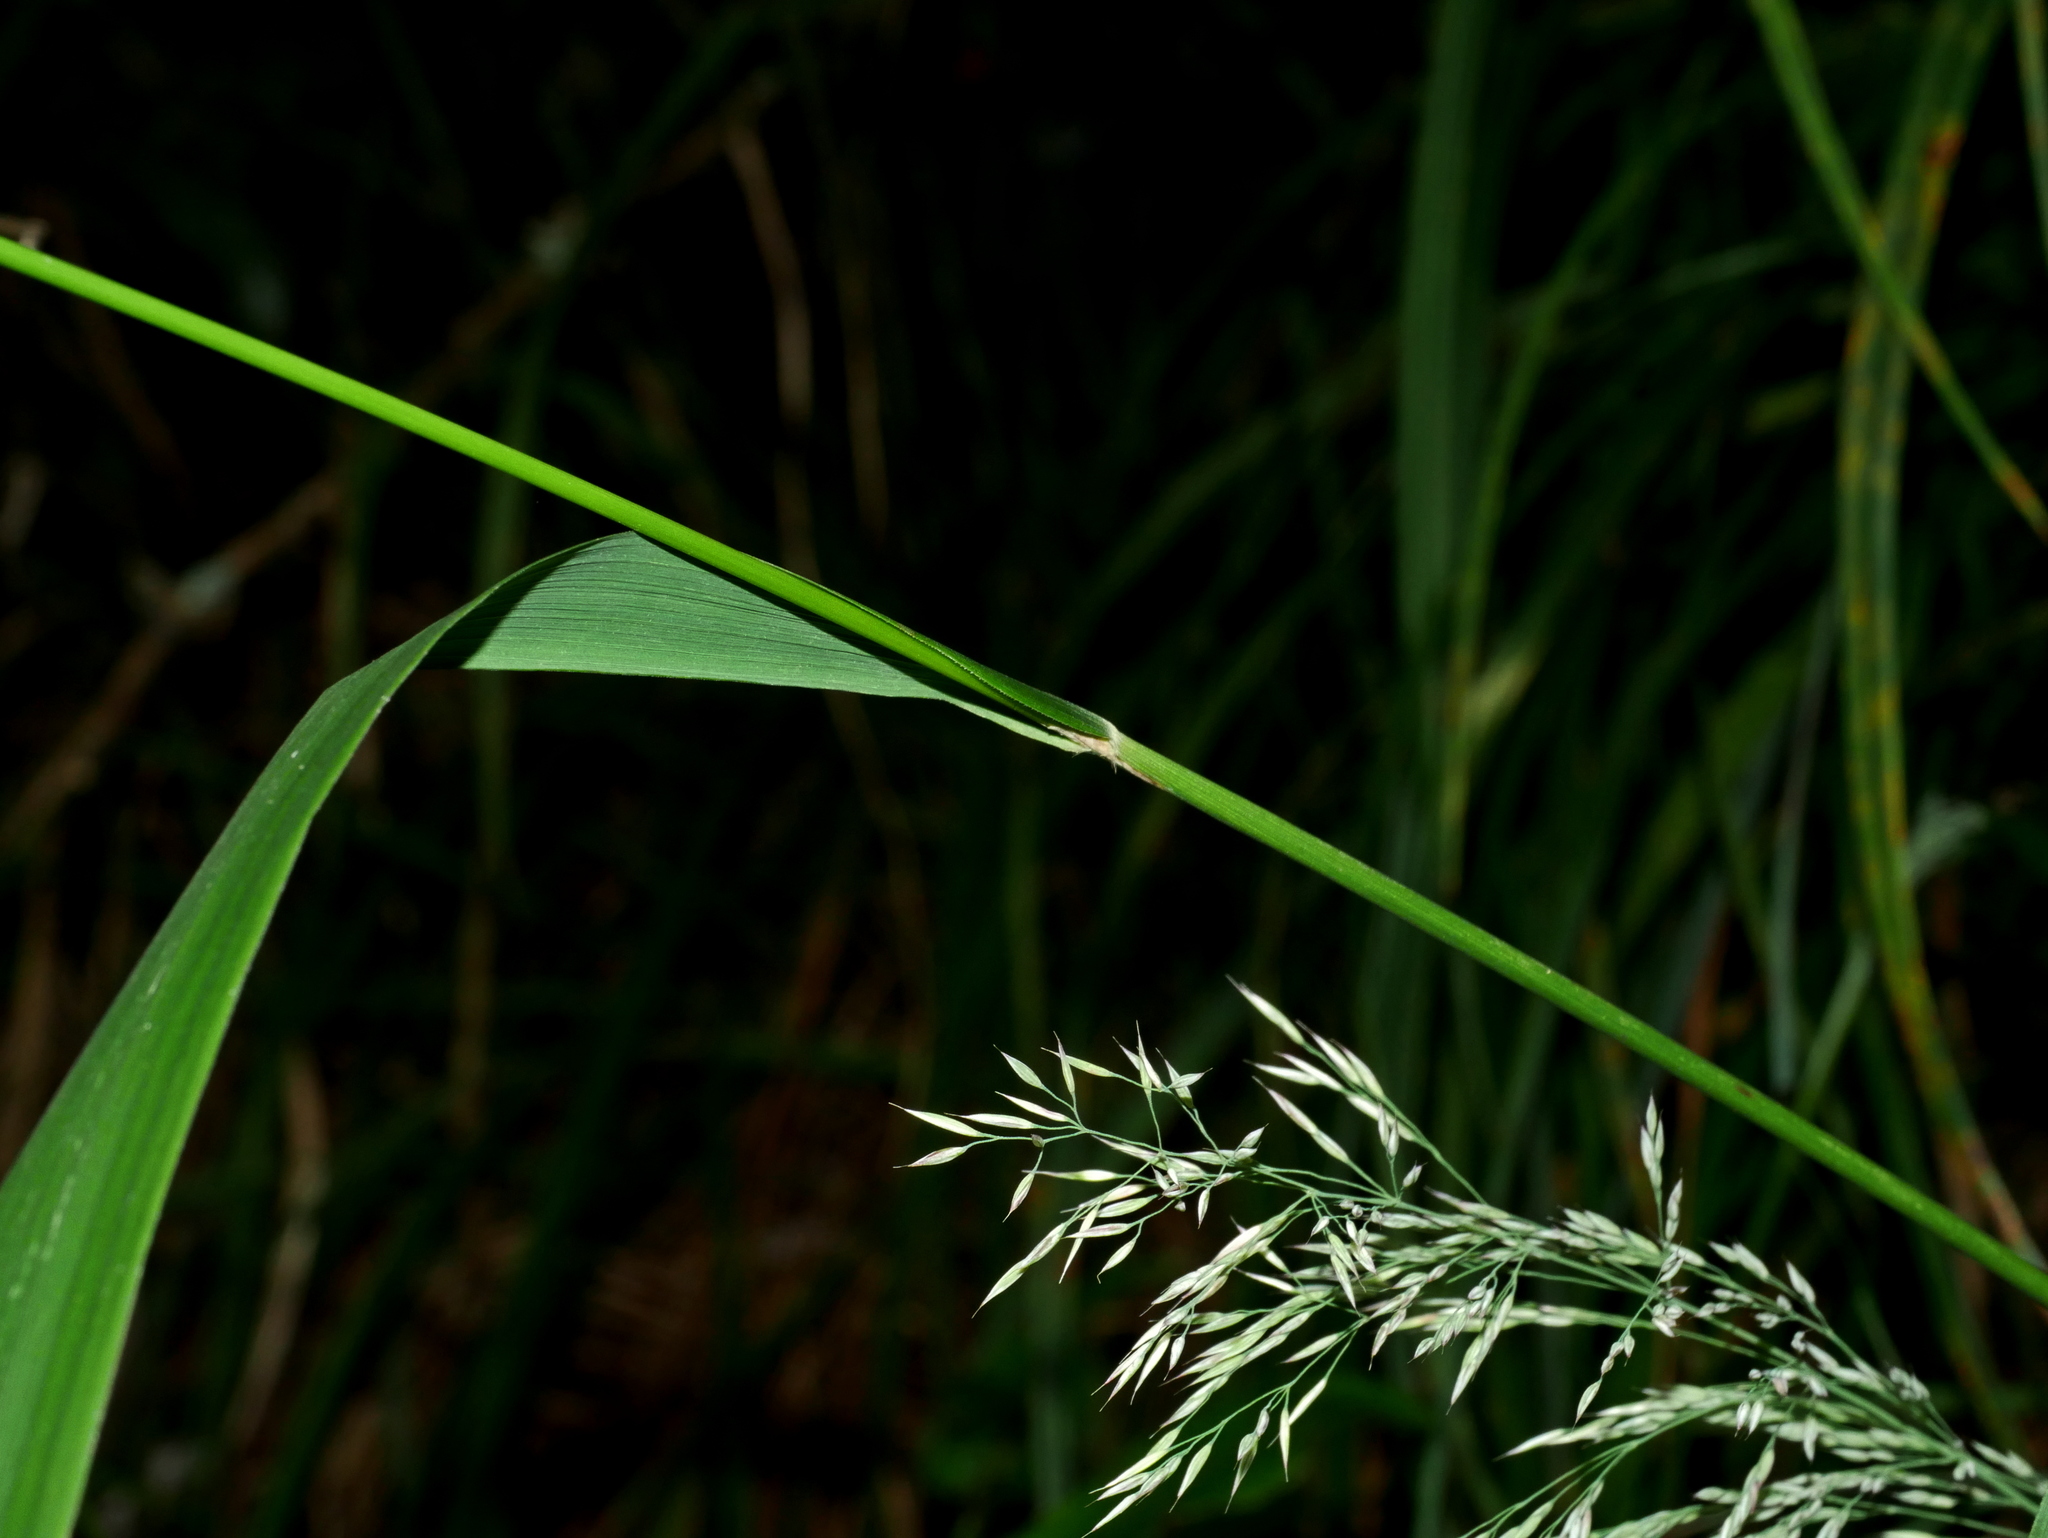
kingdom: Plantae
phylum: Tracheophyta
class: Liliopsida
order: Poales
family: Poaceae
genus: Calamagrostis
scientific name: Calamagrostis arundinacea
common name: Metskastik
